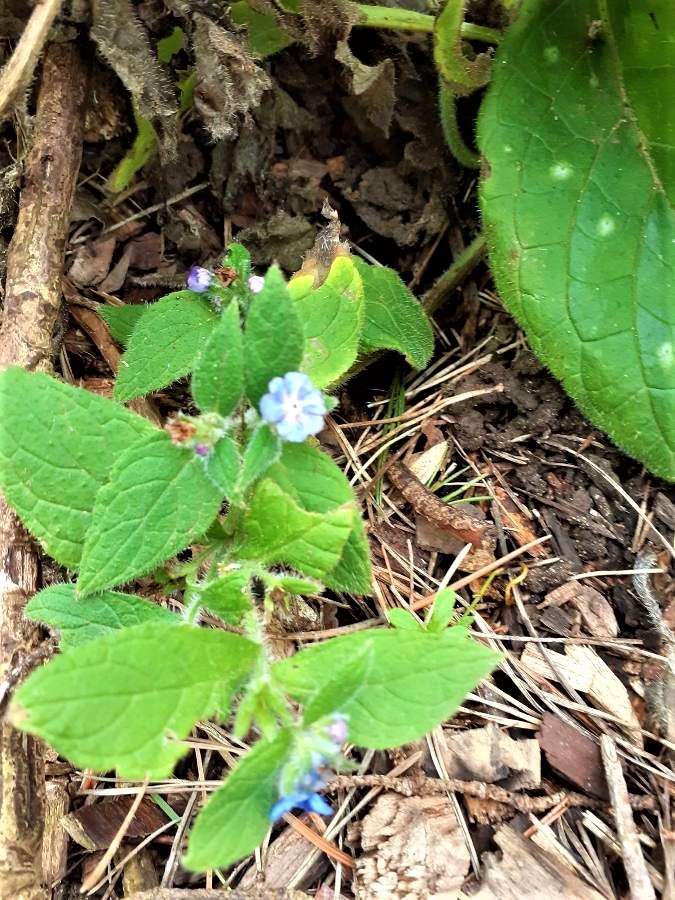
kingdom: Plantae
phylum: Tracheophyta
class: Magnoliopsida
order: Boraginales
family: Boraginaceae
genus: Pentaglottis
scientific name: Pentaglottis sempervirens
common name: Green alkanet
